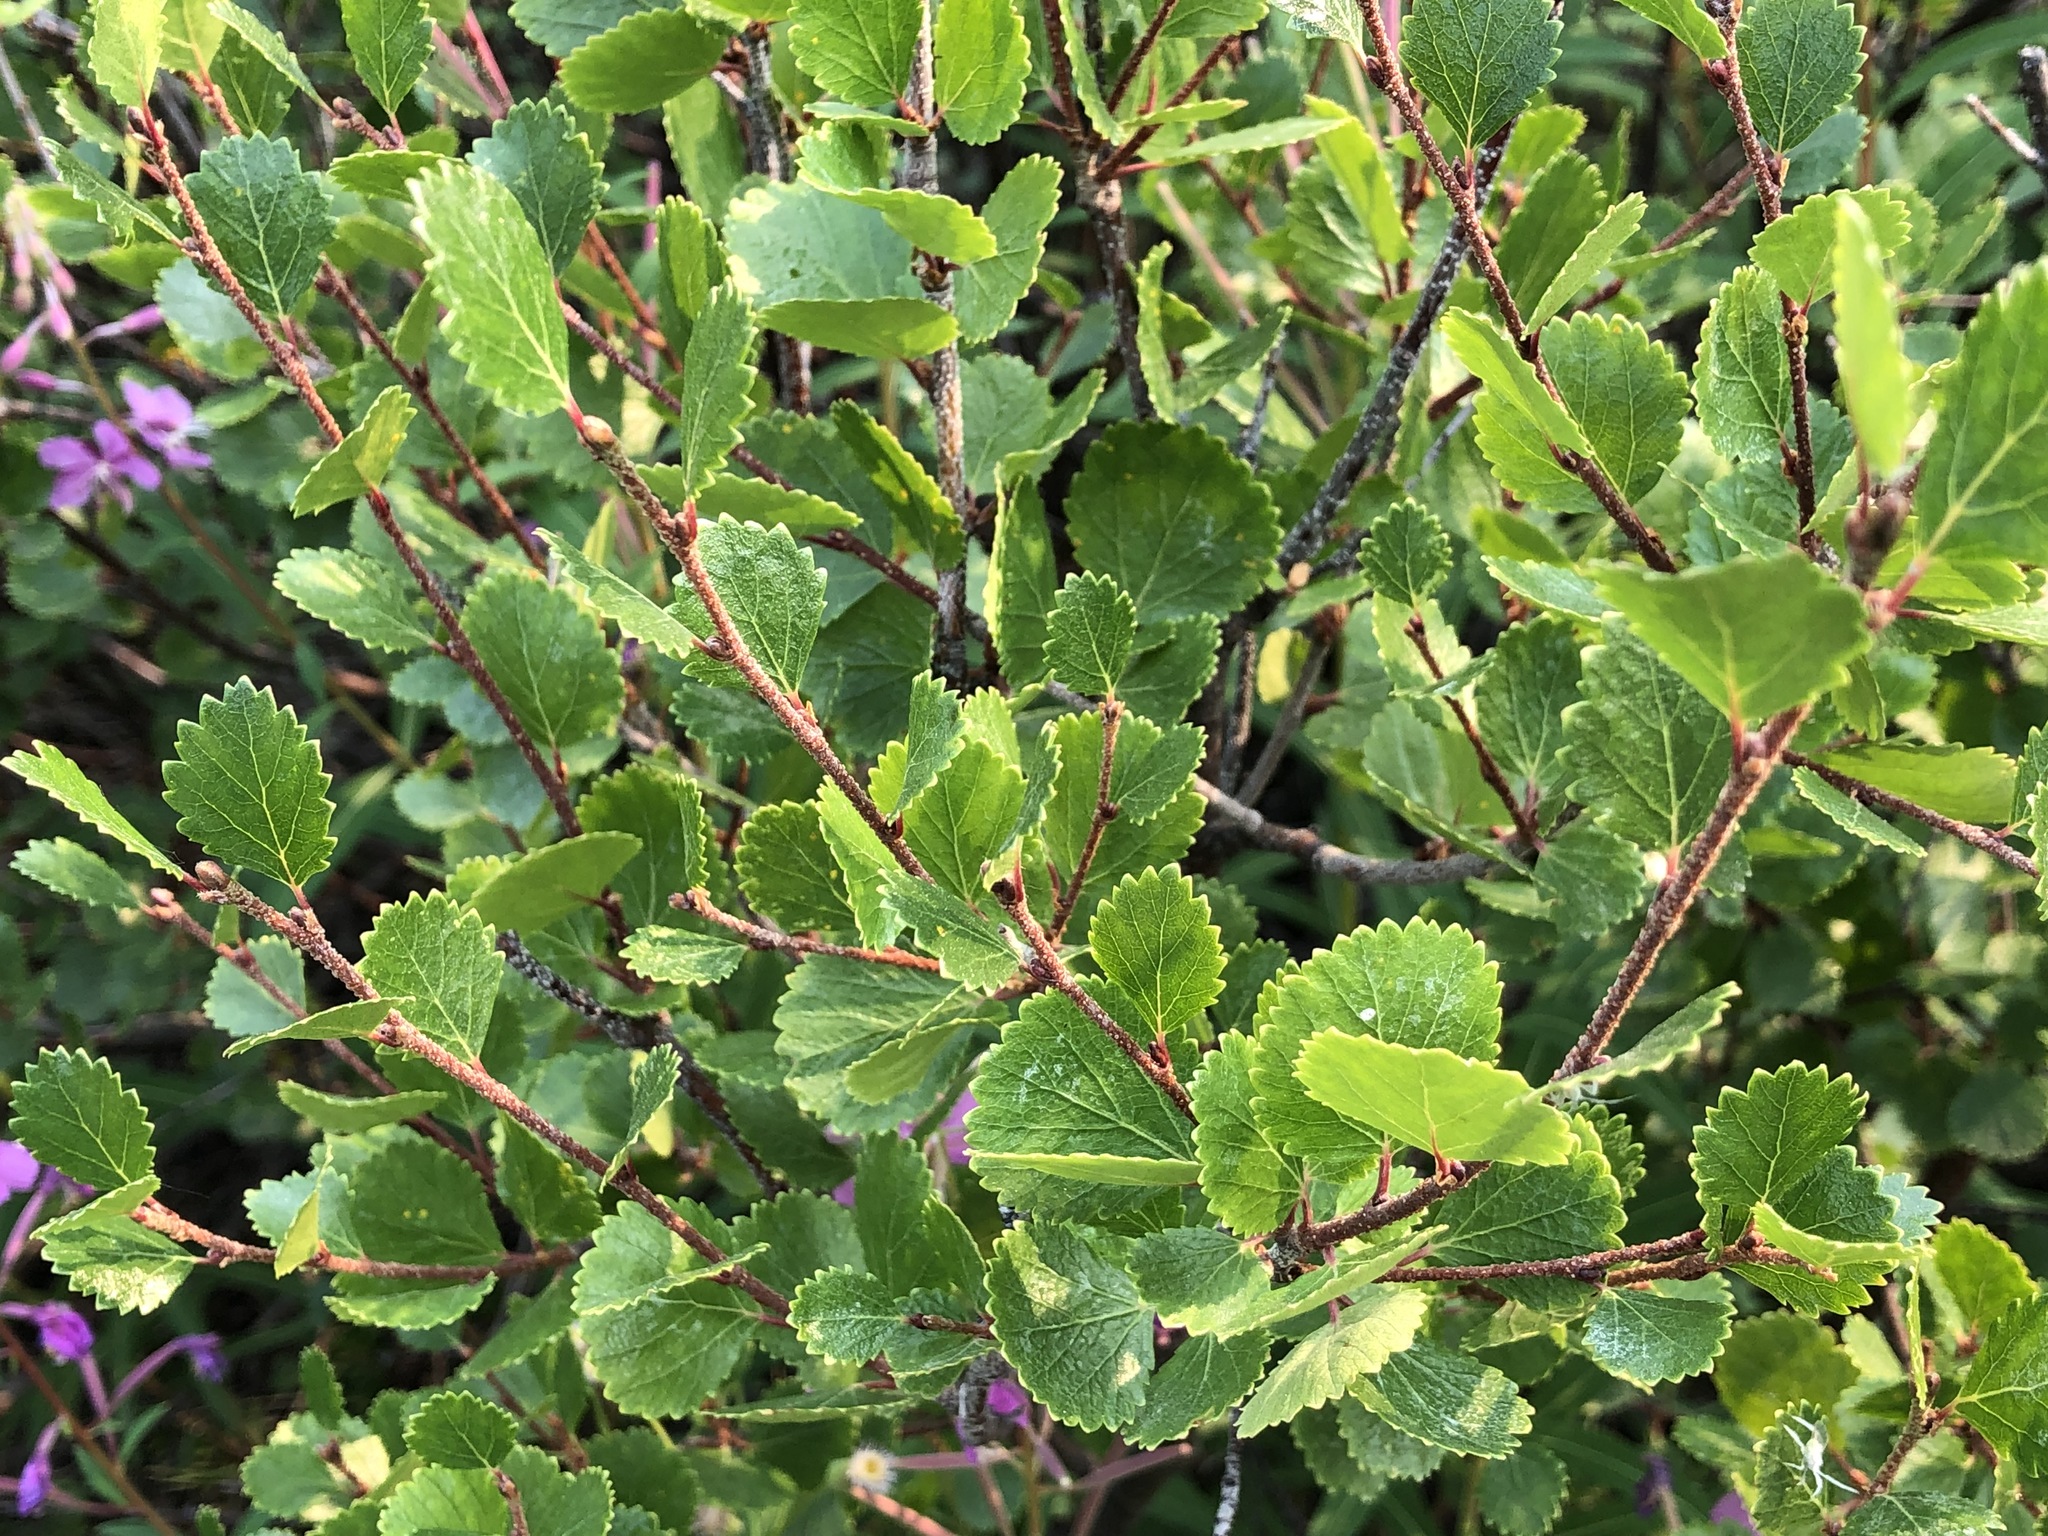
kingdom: Plantae
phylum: Tracheophyta
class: Magnoliopsida
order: Fagales
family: Betulaceae
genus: Betula
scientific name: Betula nana
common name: Arctic dwarf birch
